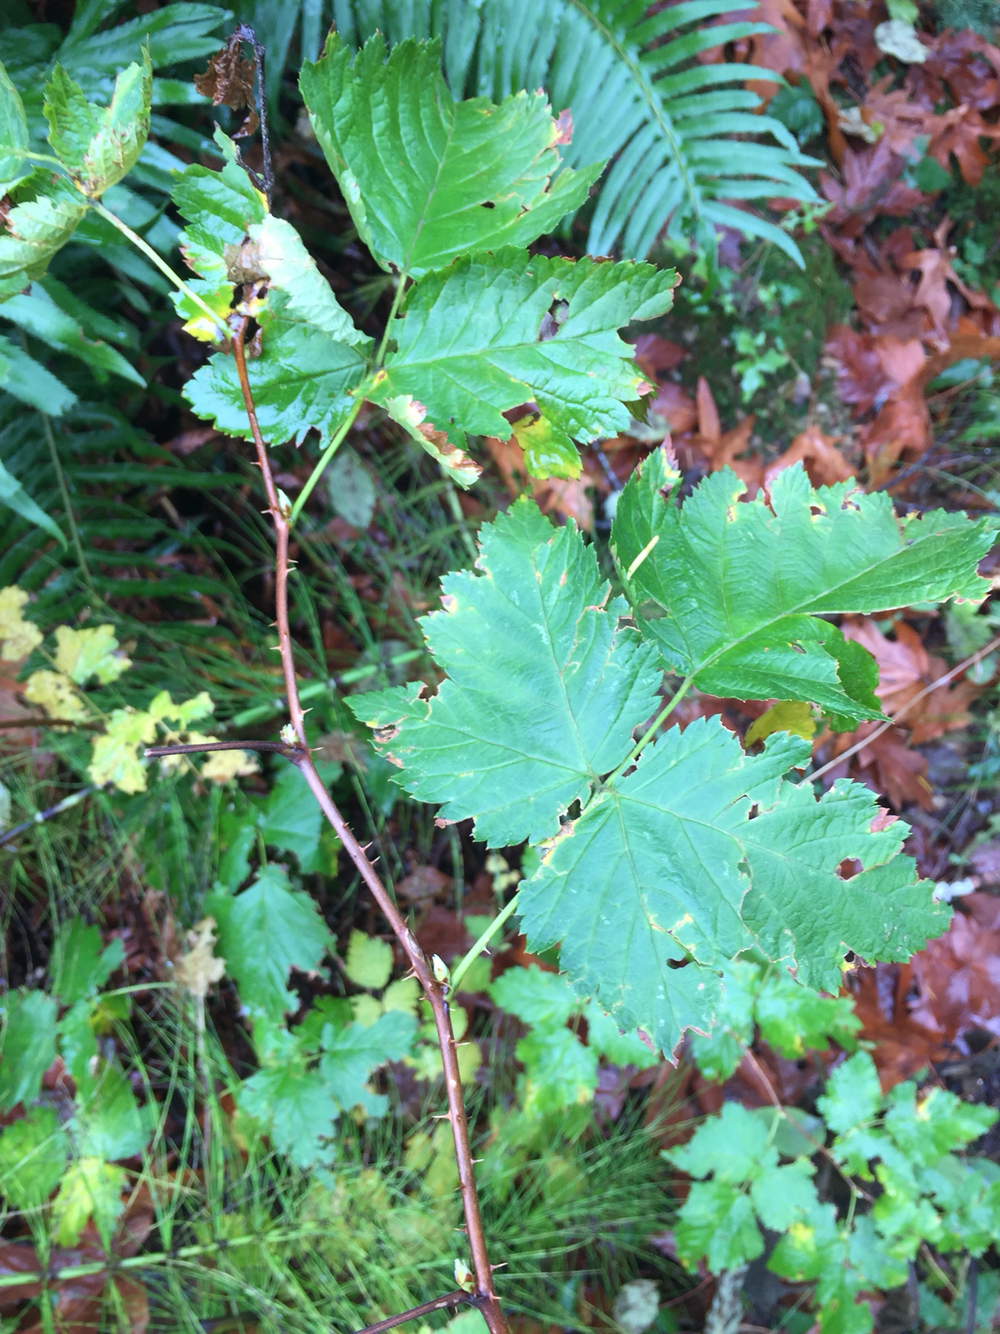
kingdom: Plantae
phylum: Tracheophyta
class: Magnoliopsida
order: Rosales
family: Rosaceae
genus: Rubus
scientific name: Rubus spectabilis
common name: Salmonberry
